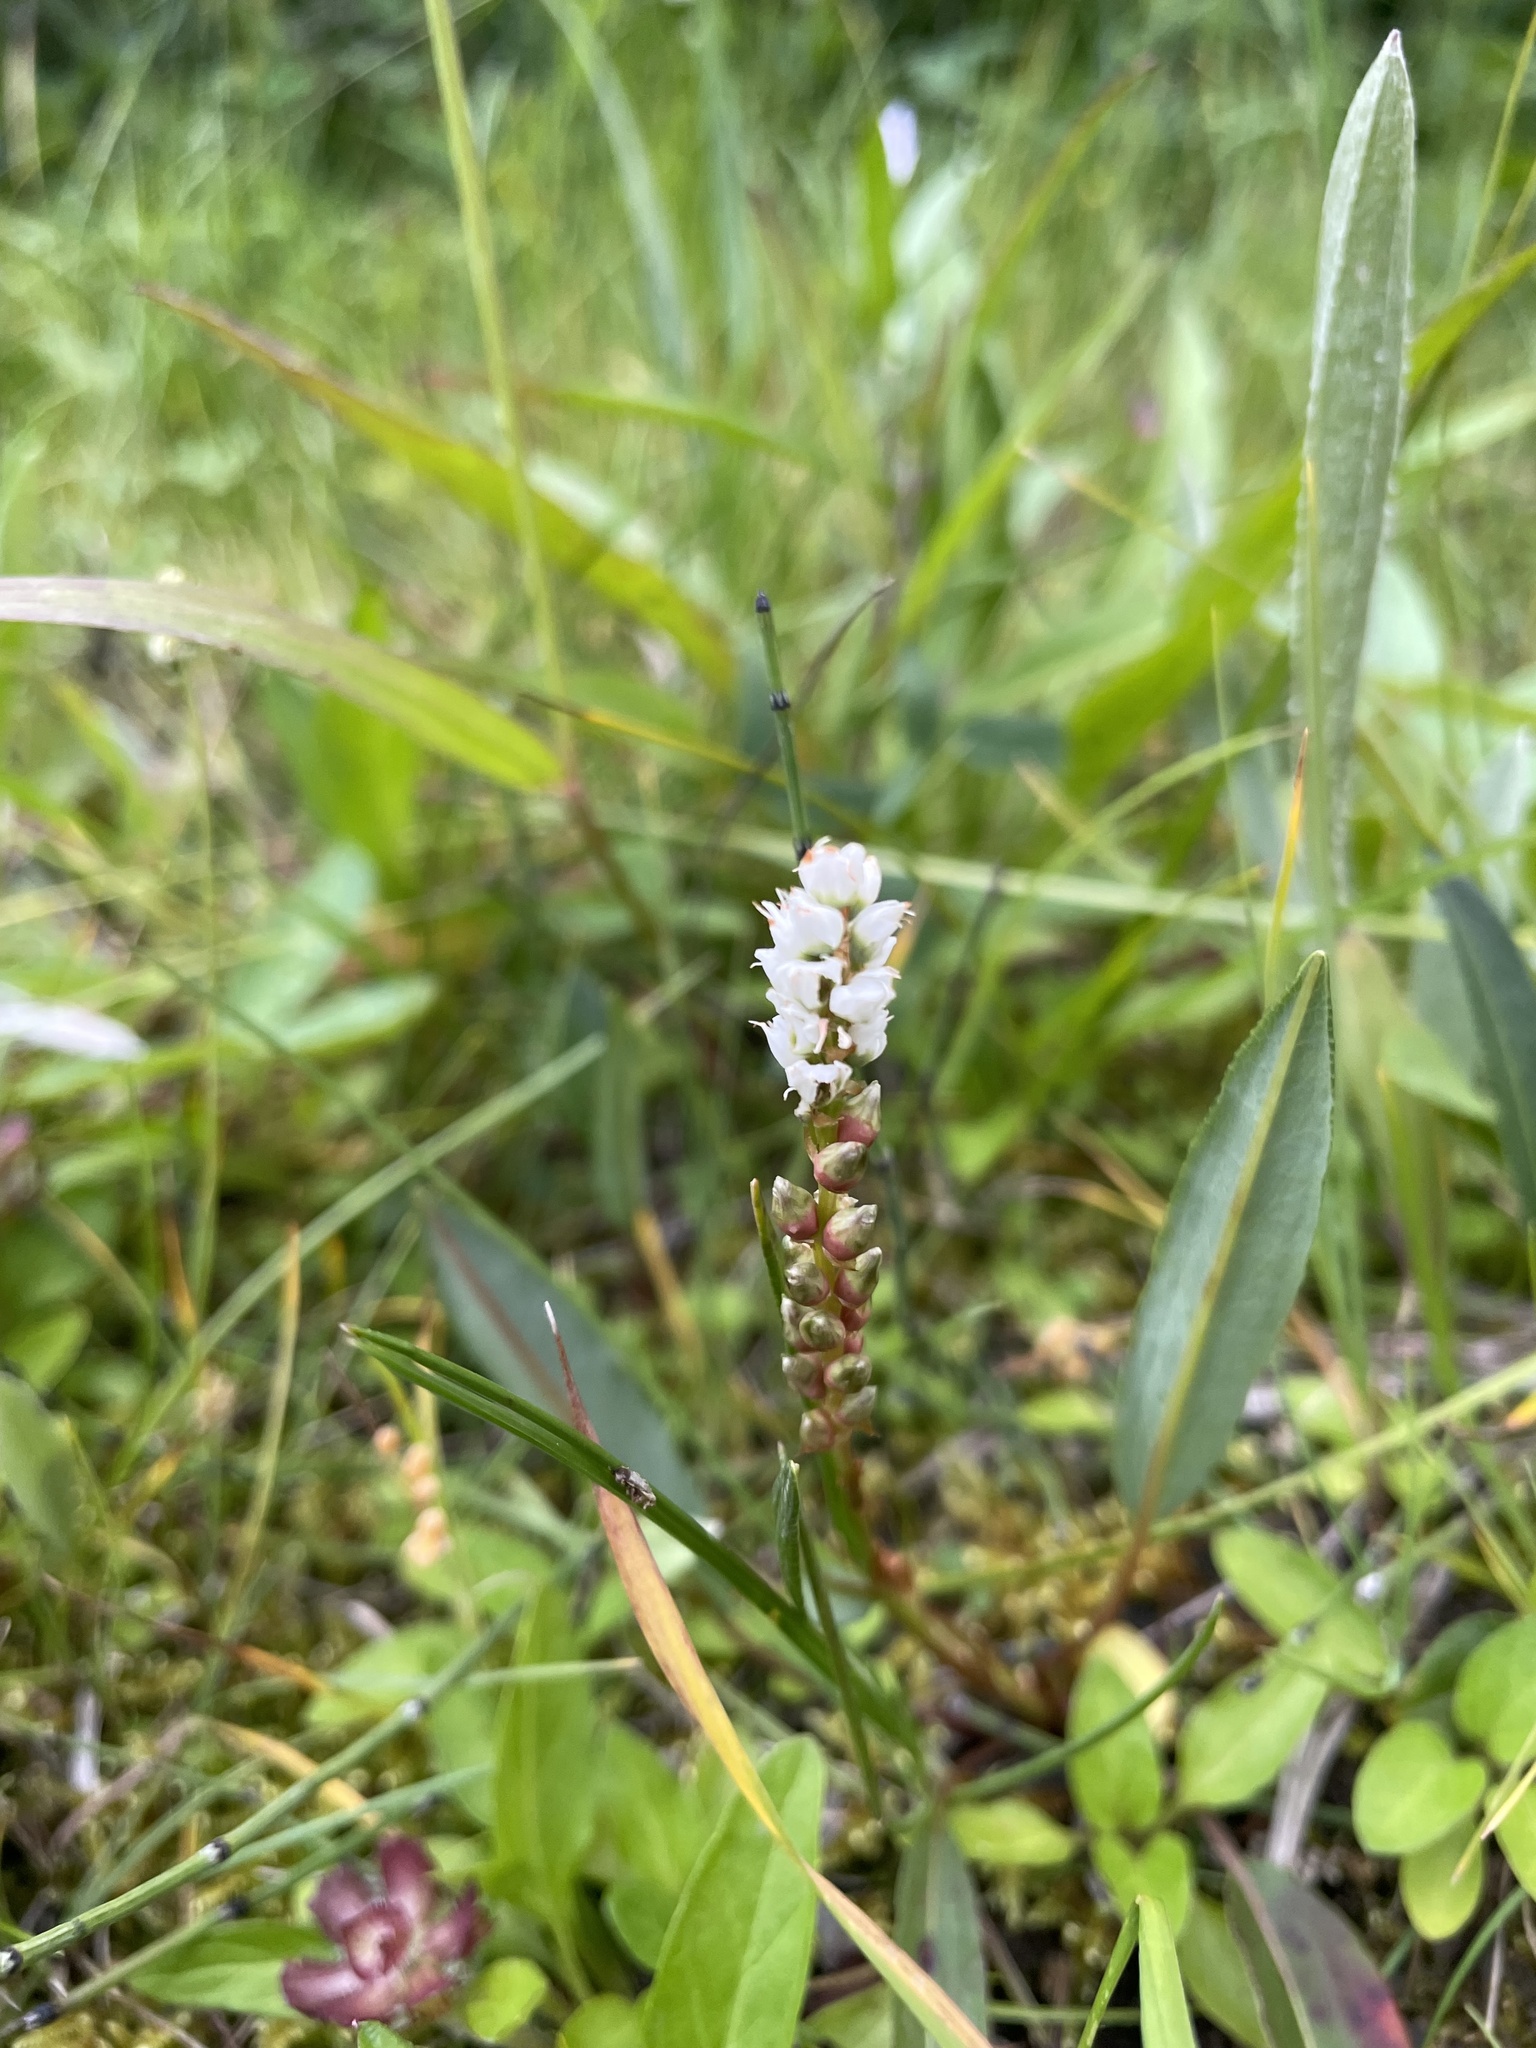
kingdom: Plantae
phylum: Tracheophyta
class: Magnoliopsida
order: Caryophyllales
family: Polygonaceae
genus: Bistorta
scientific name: Bistorta vivipara
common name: Alpine bistort
